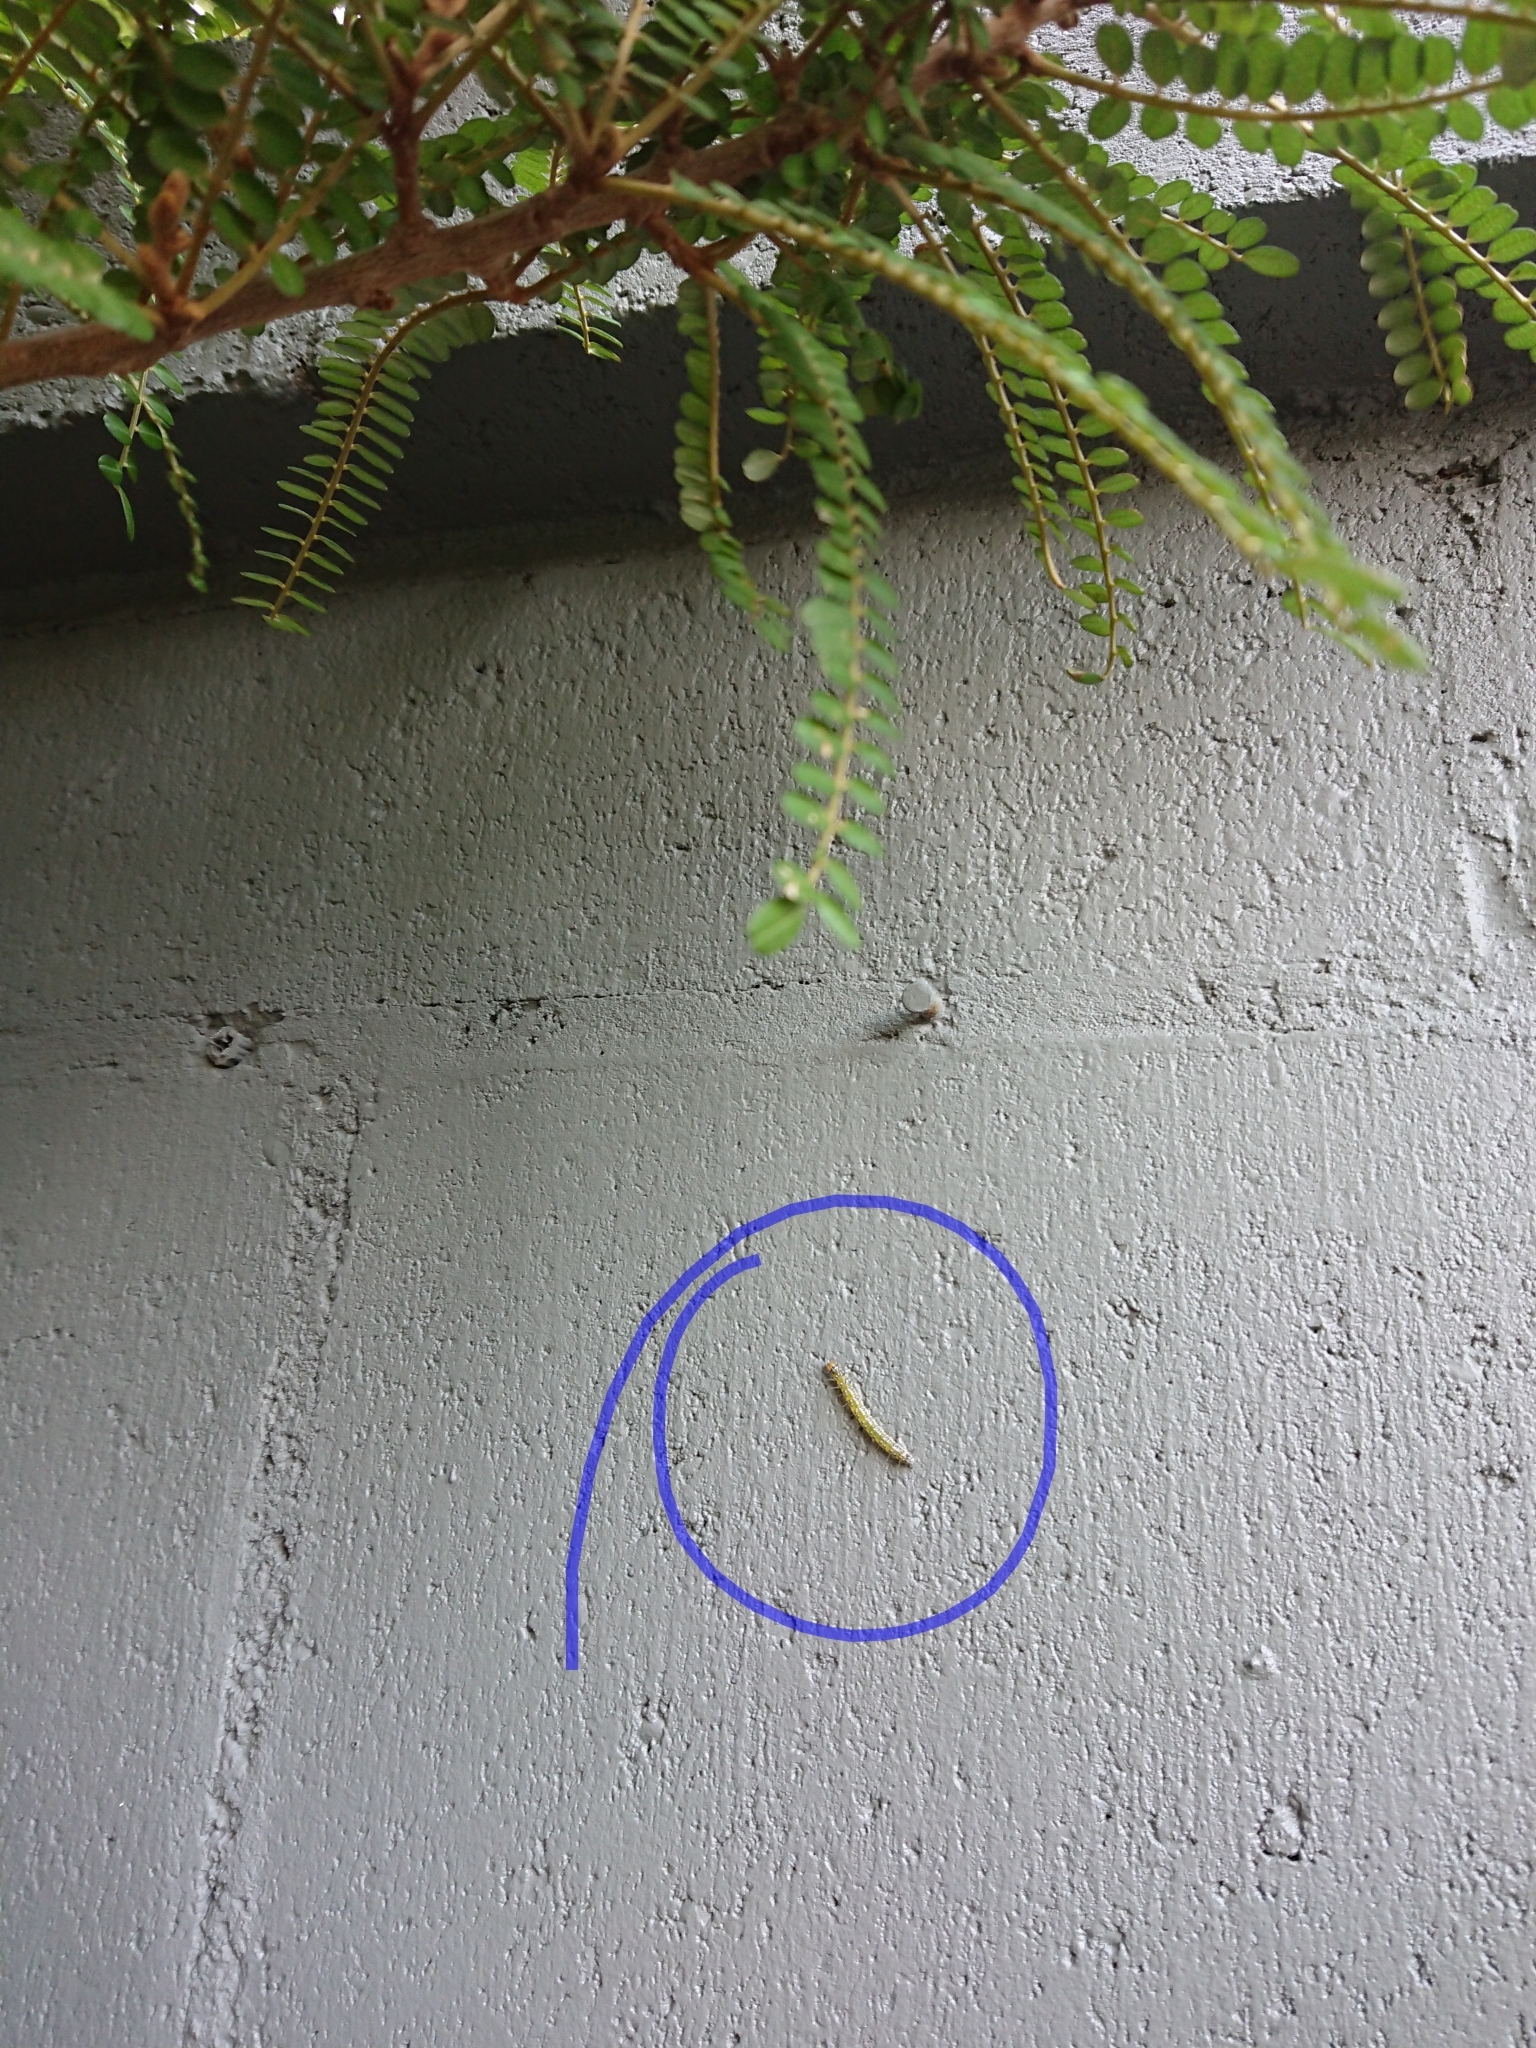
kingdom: Animalia
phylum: Arthropoda
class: Insecta
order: Lepidoptera
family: Crambidae
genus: Uresiphita
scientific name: Uresiphita
